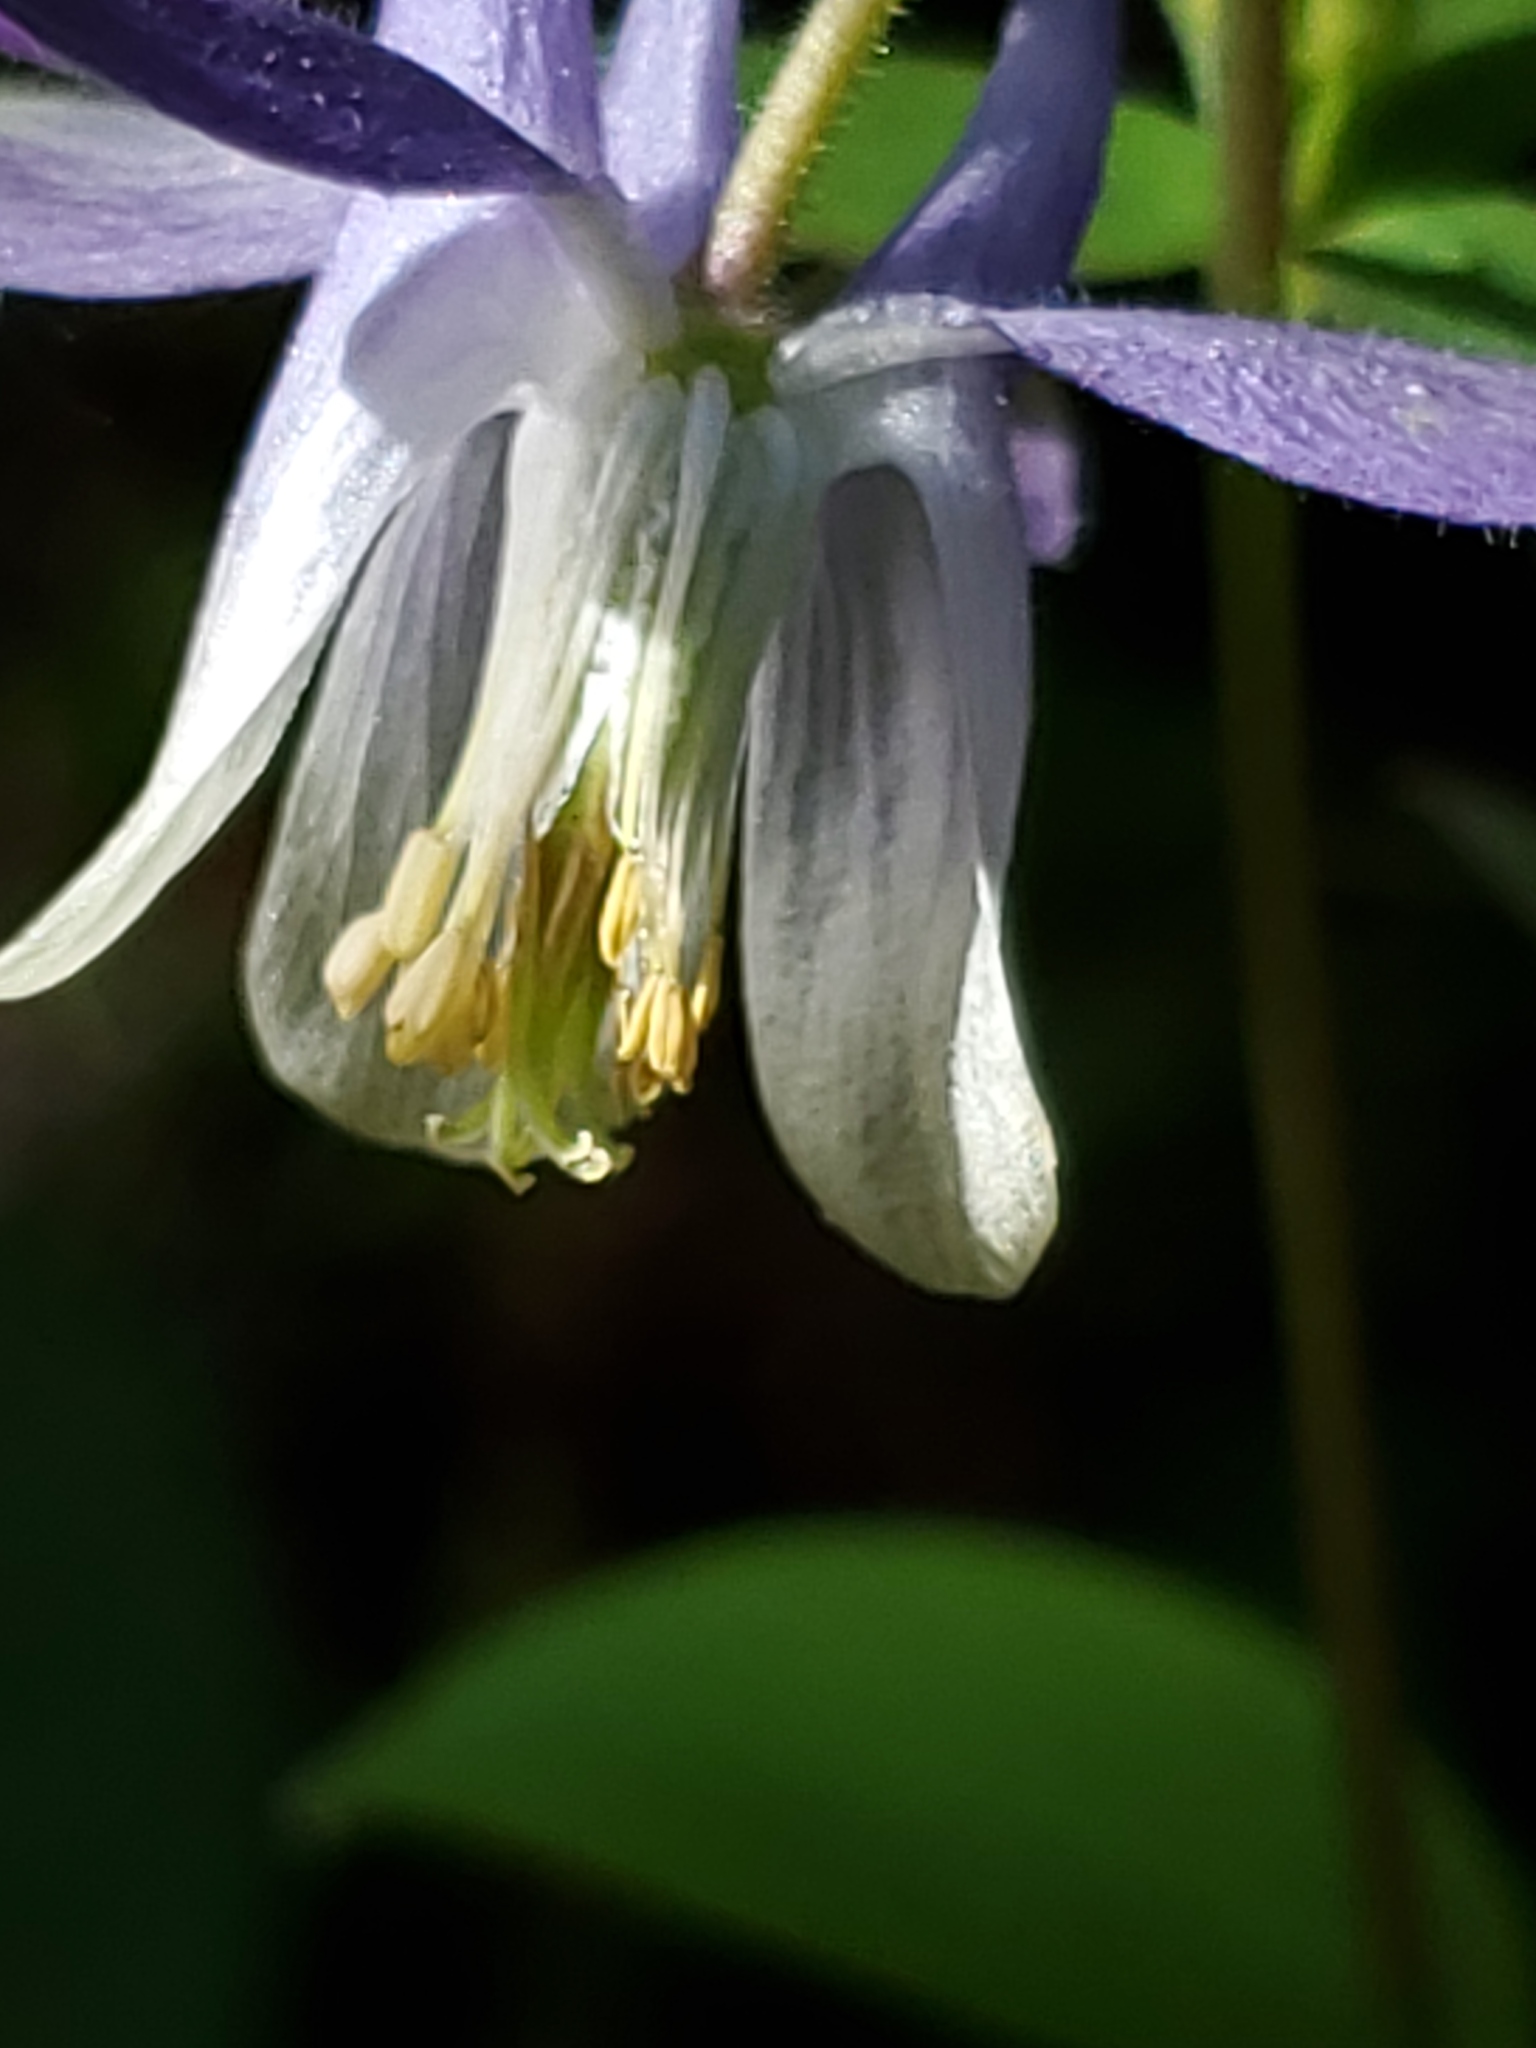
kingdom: Plantae
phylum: Tracheophyta
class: Magnoliopsida
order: Ranunculales
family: Ranunculaceae
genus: Aquilegia
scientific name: Aquilegia brevistyla
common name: Yukon columbine
